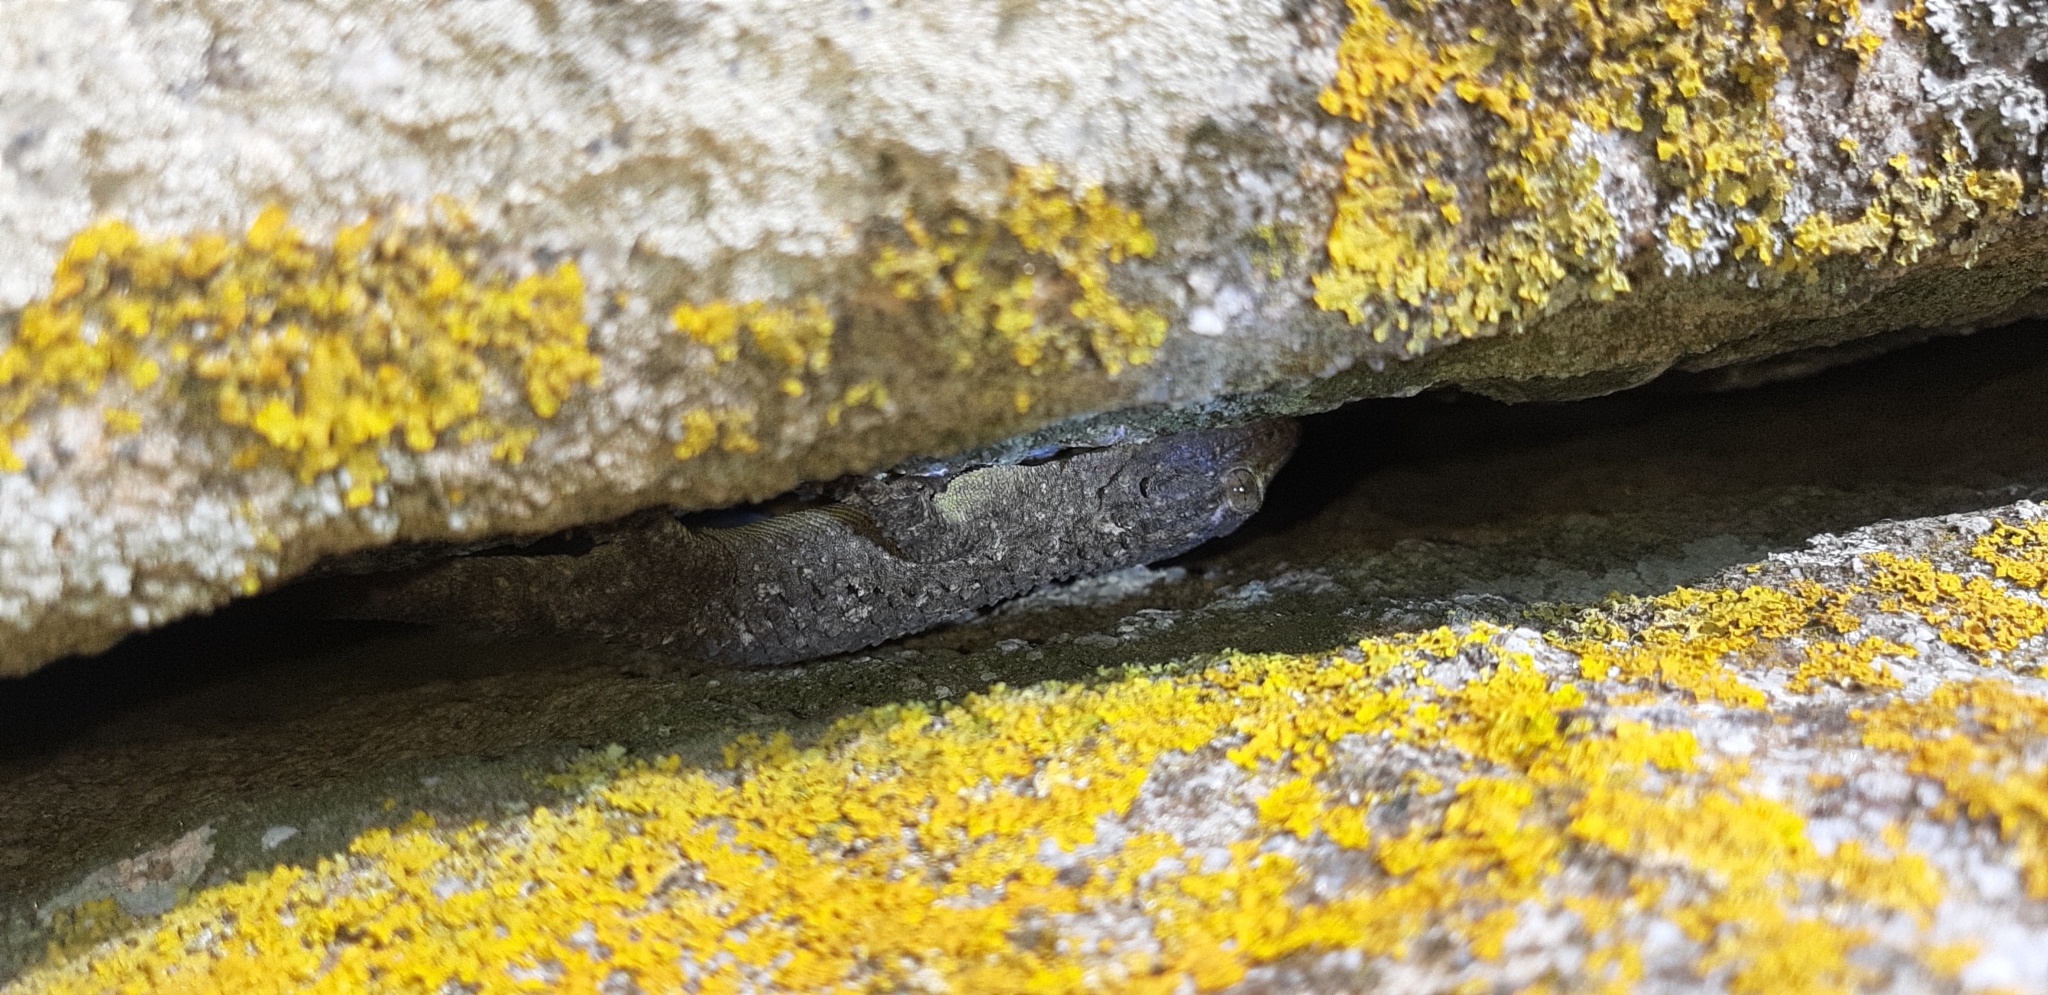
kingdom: Animalia
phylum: Chordata
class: Squamata
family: Phyllodactylidae
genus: Tarentola
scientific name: Tarentola mauritanica
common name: Moorish gecko
